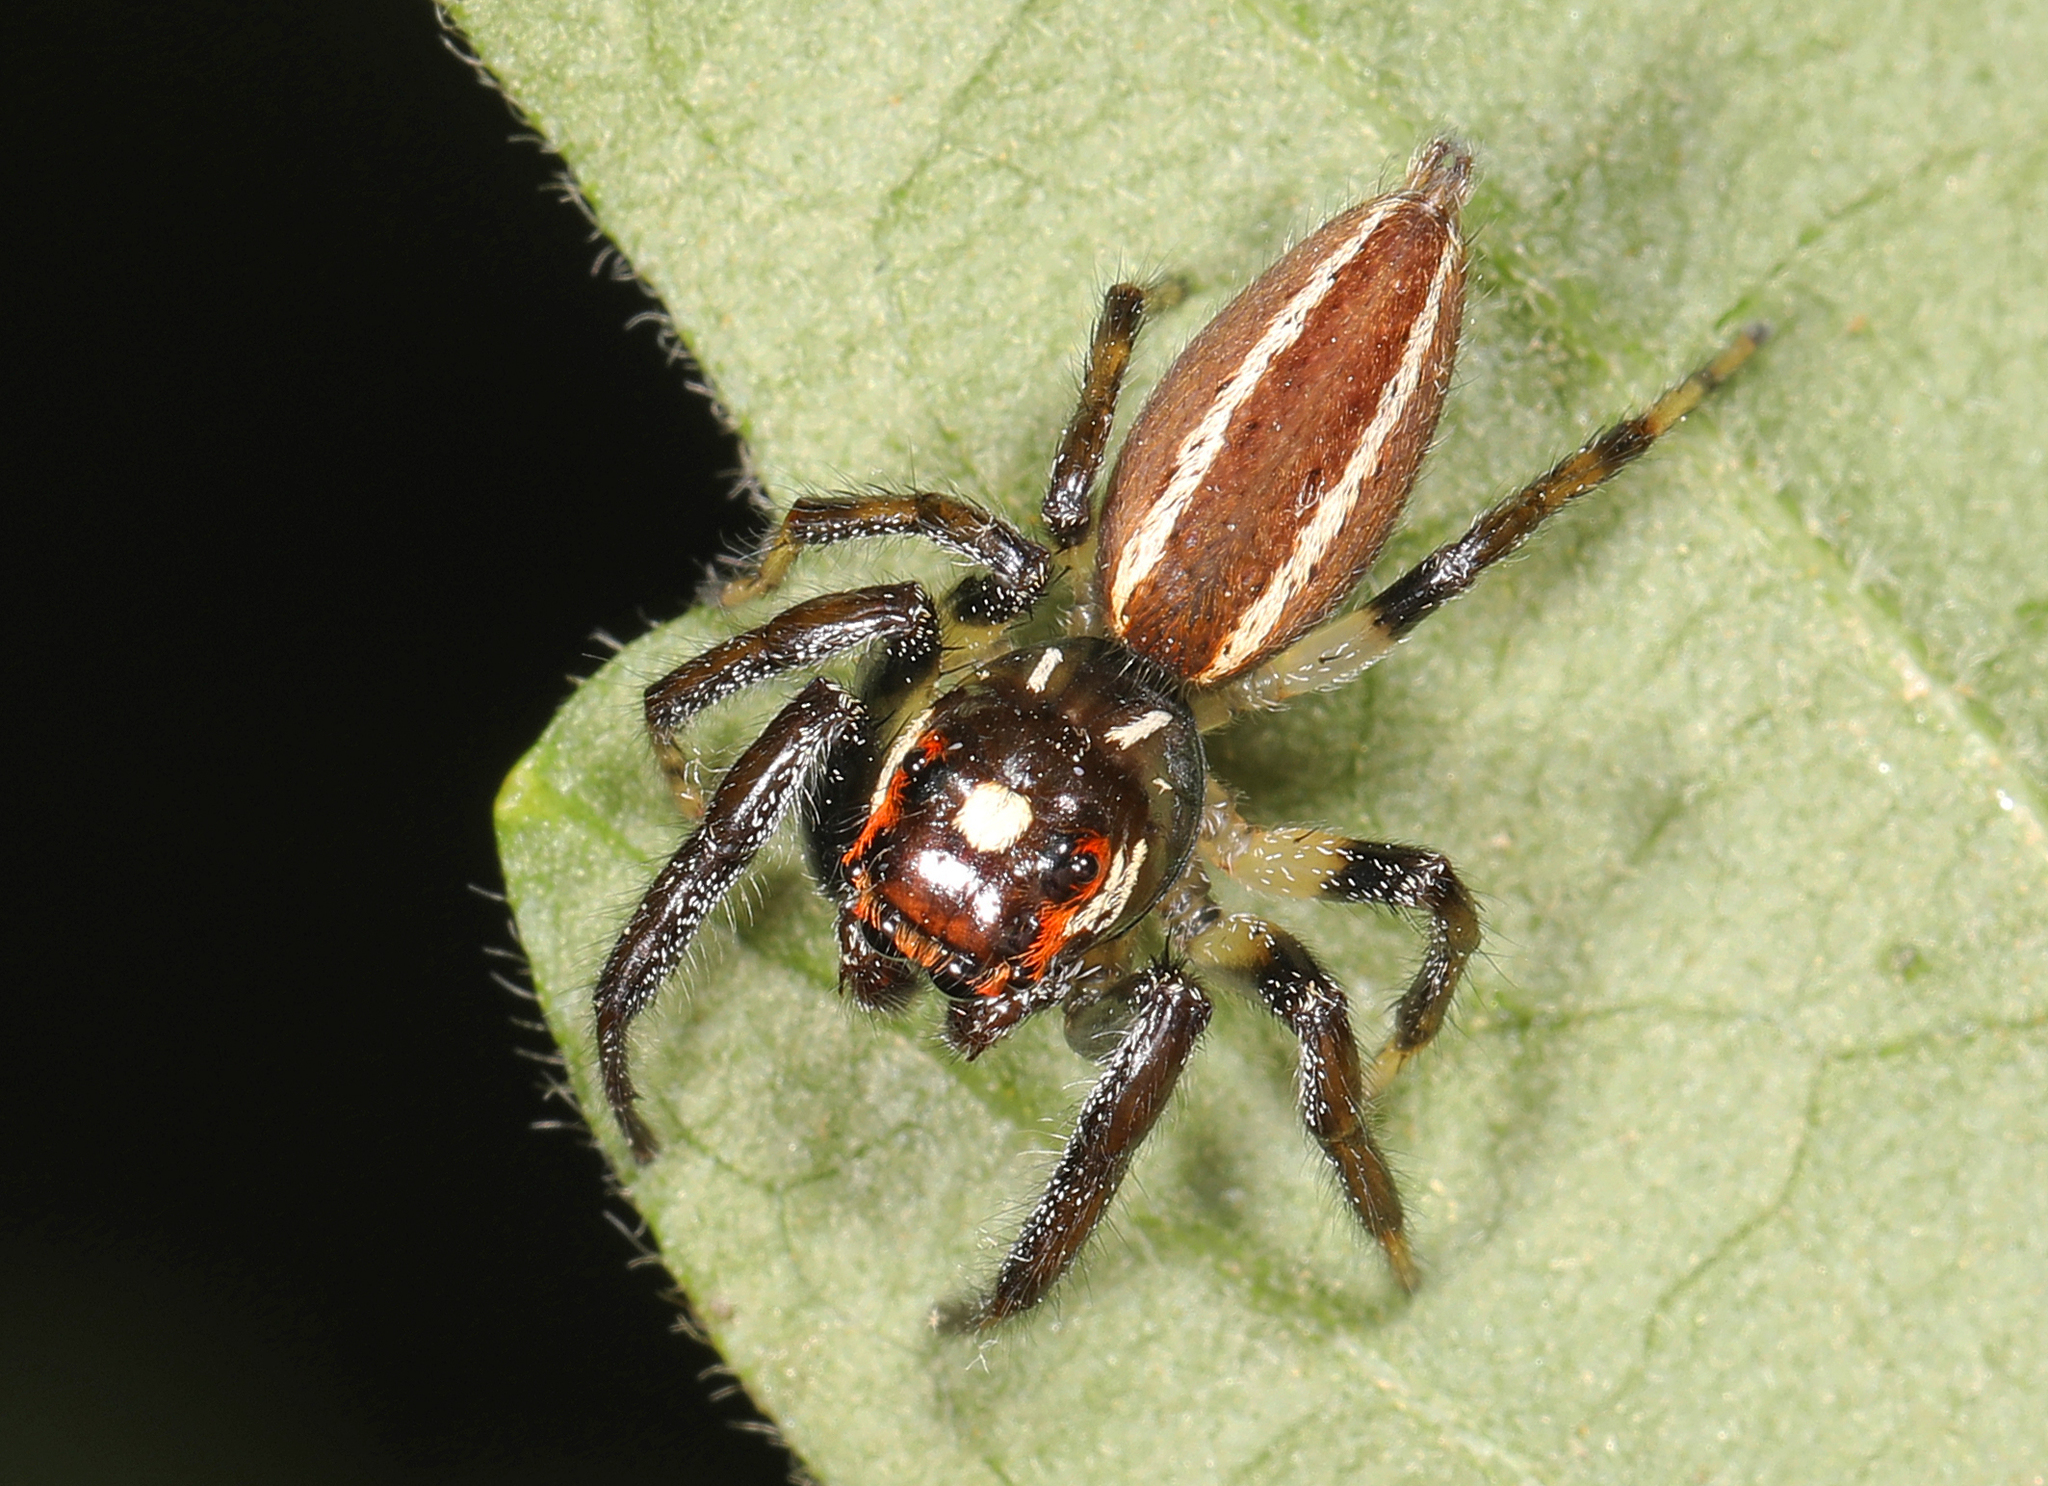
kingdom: Animalia
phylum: Arthropoda
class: Arachnida
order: Araneae
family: Salticidae
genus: Colonus
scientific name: Colonus sylvanus
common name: Jumping spiders
